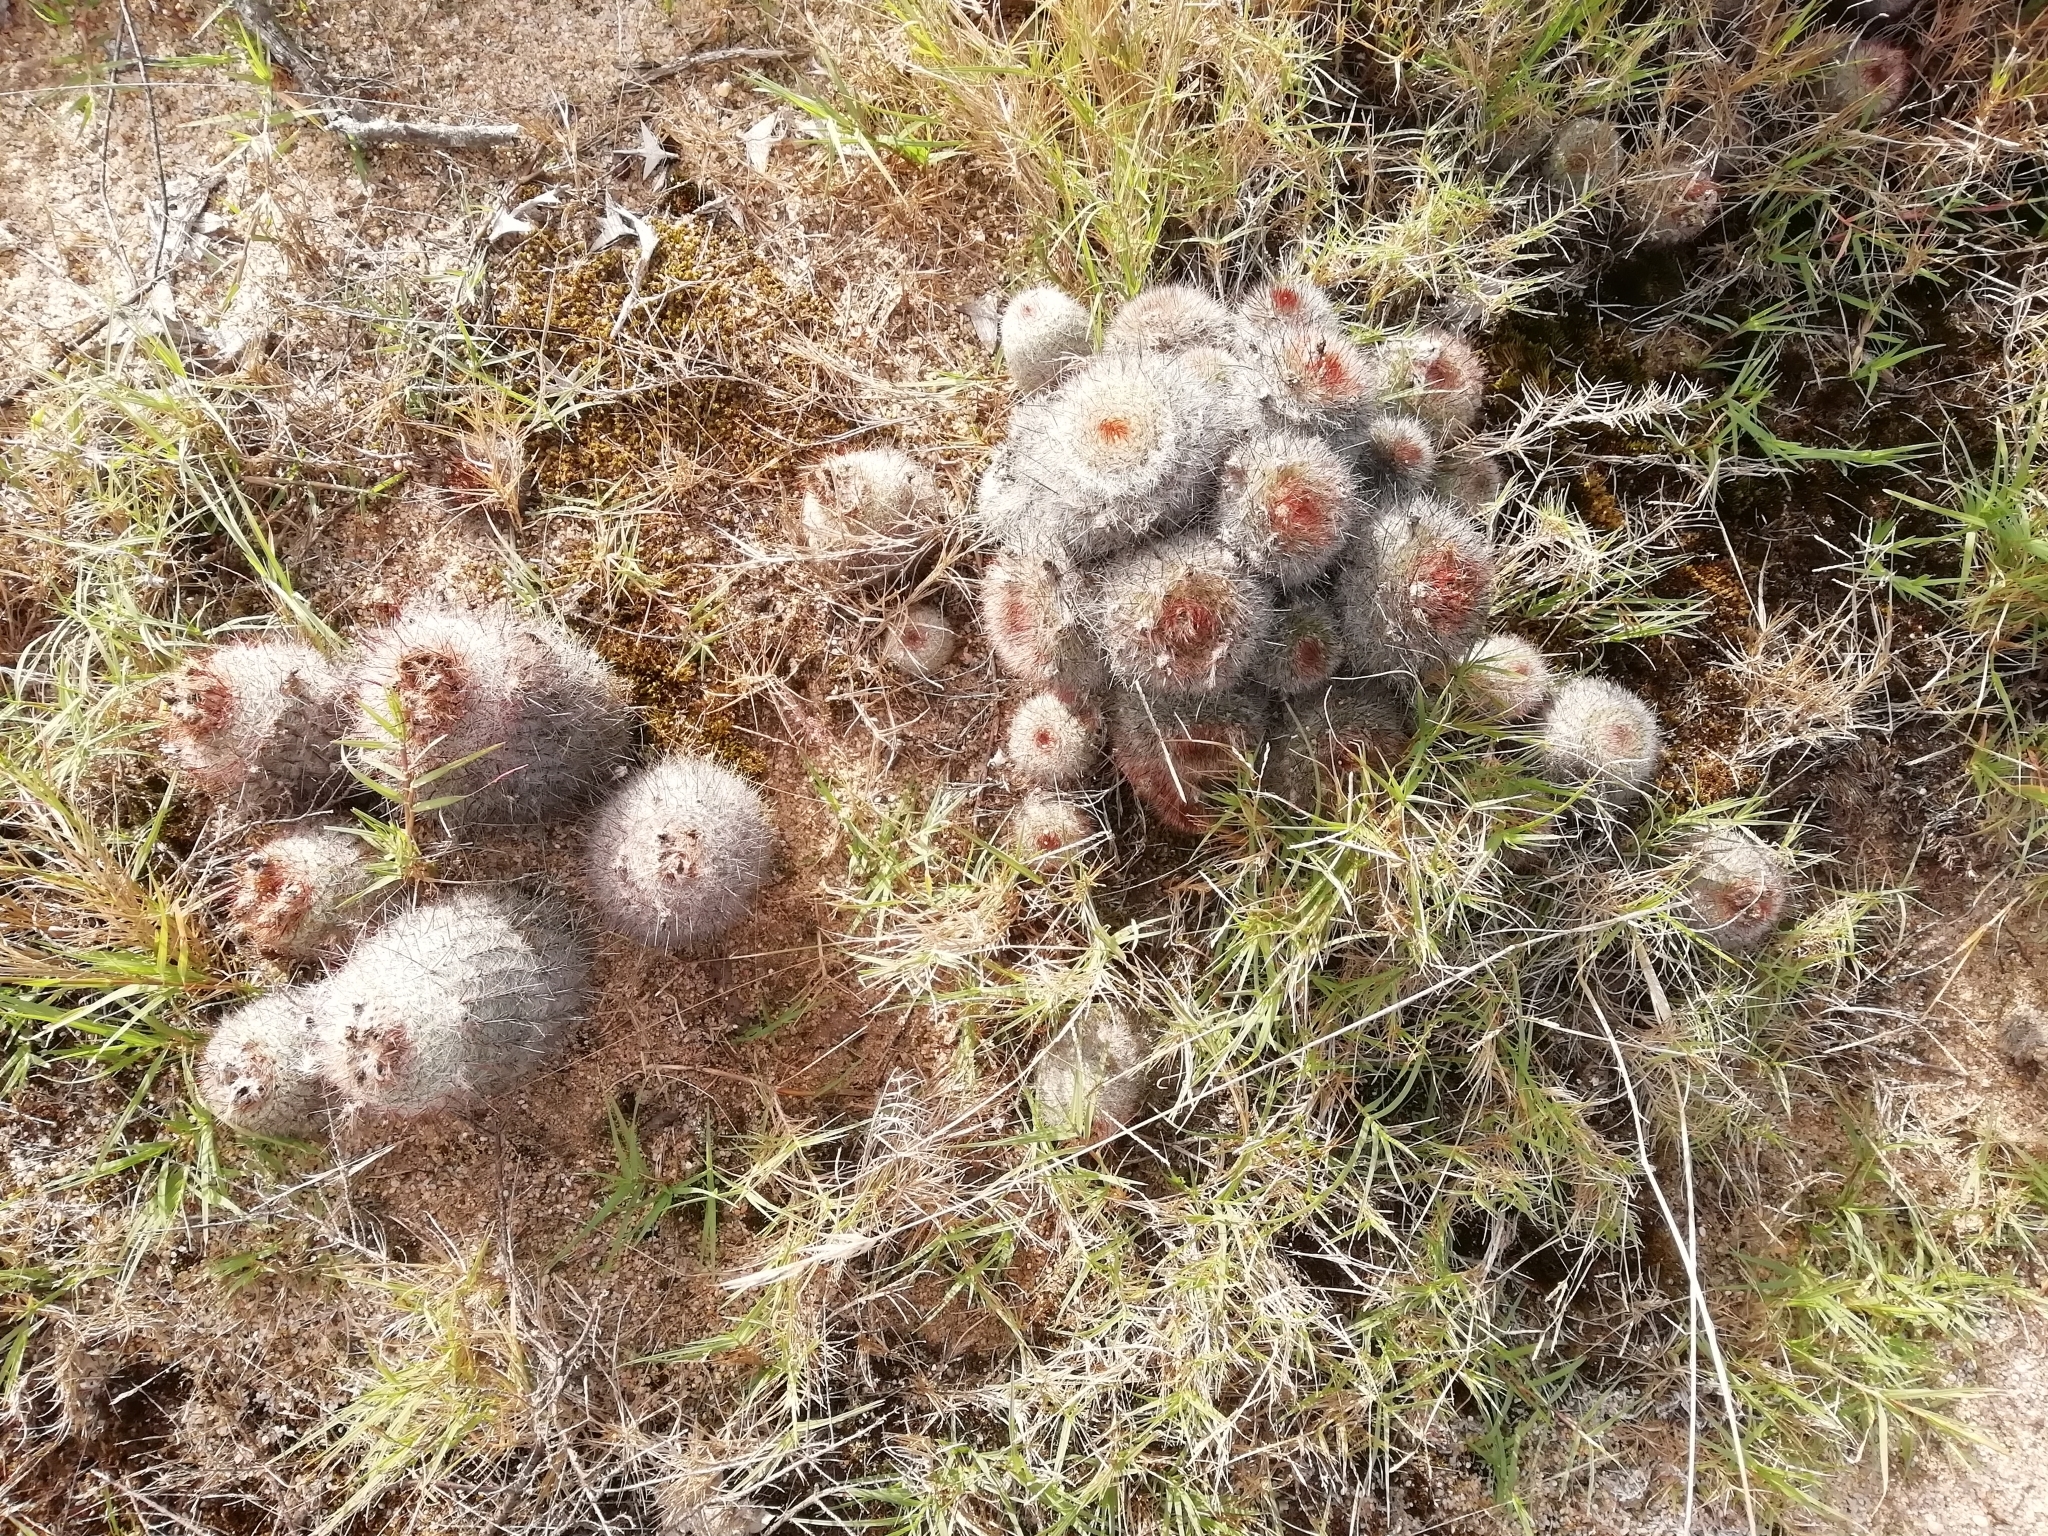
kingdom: Plantae
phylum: Tracheophyta
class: Magnoliopsida
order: Caryophyllales
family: Cactaceae
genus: Parodia
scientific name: Parodia scopa
